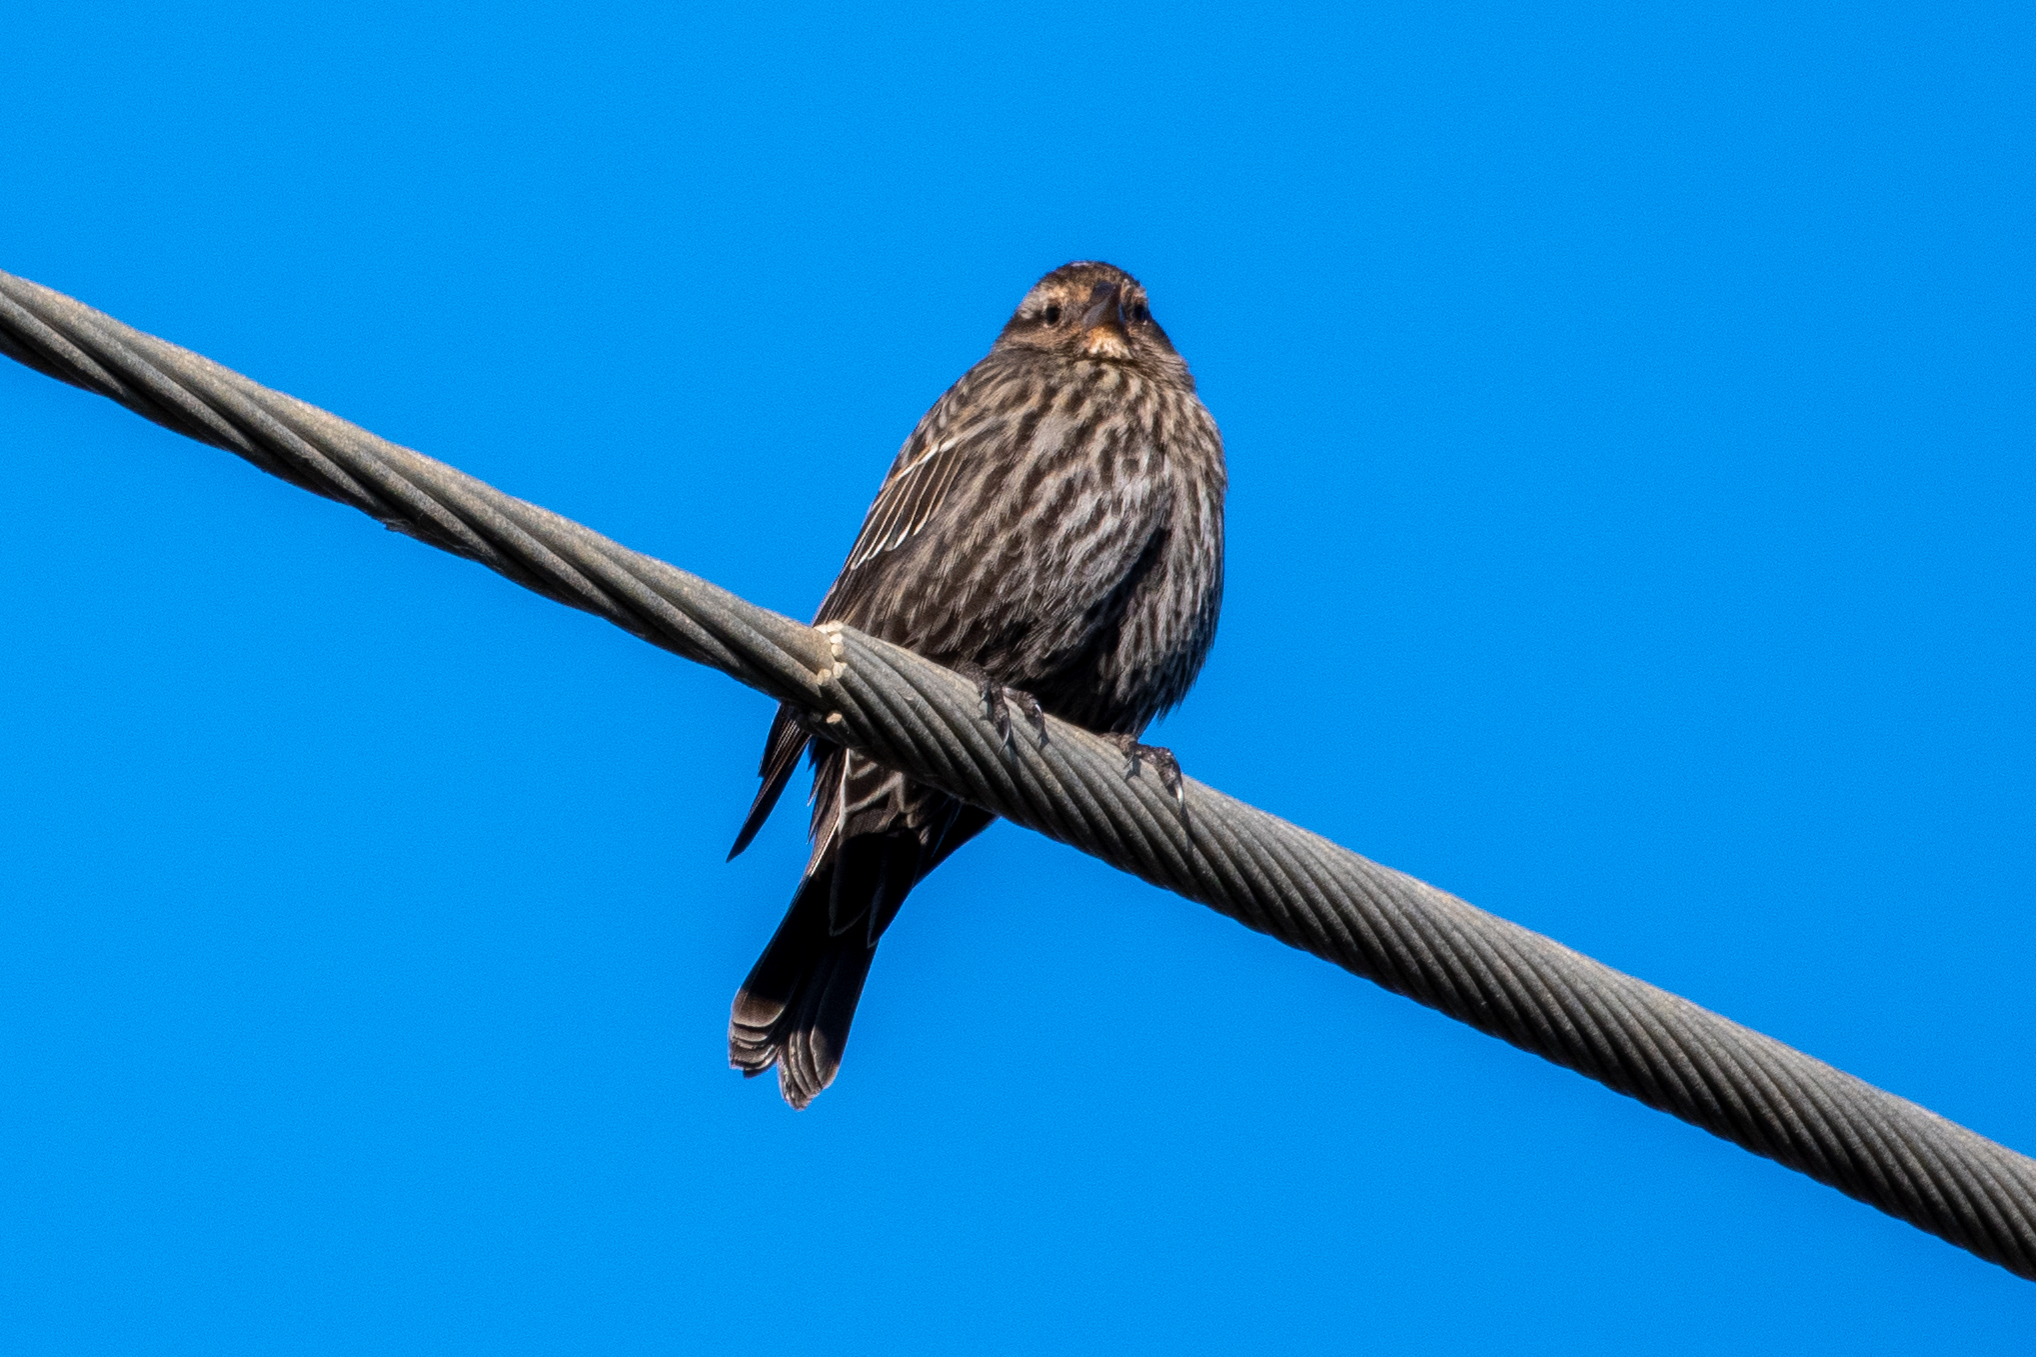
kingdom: Animalia
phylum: Chordata
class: Aves
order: Passeriformes
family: Icteridae
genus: Agelaius
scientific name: Agelaius phoeniceus
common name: Red-winged blackbird
